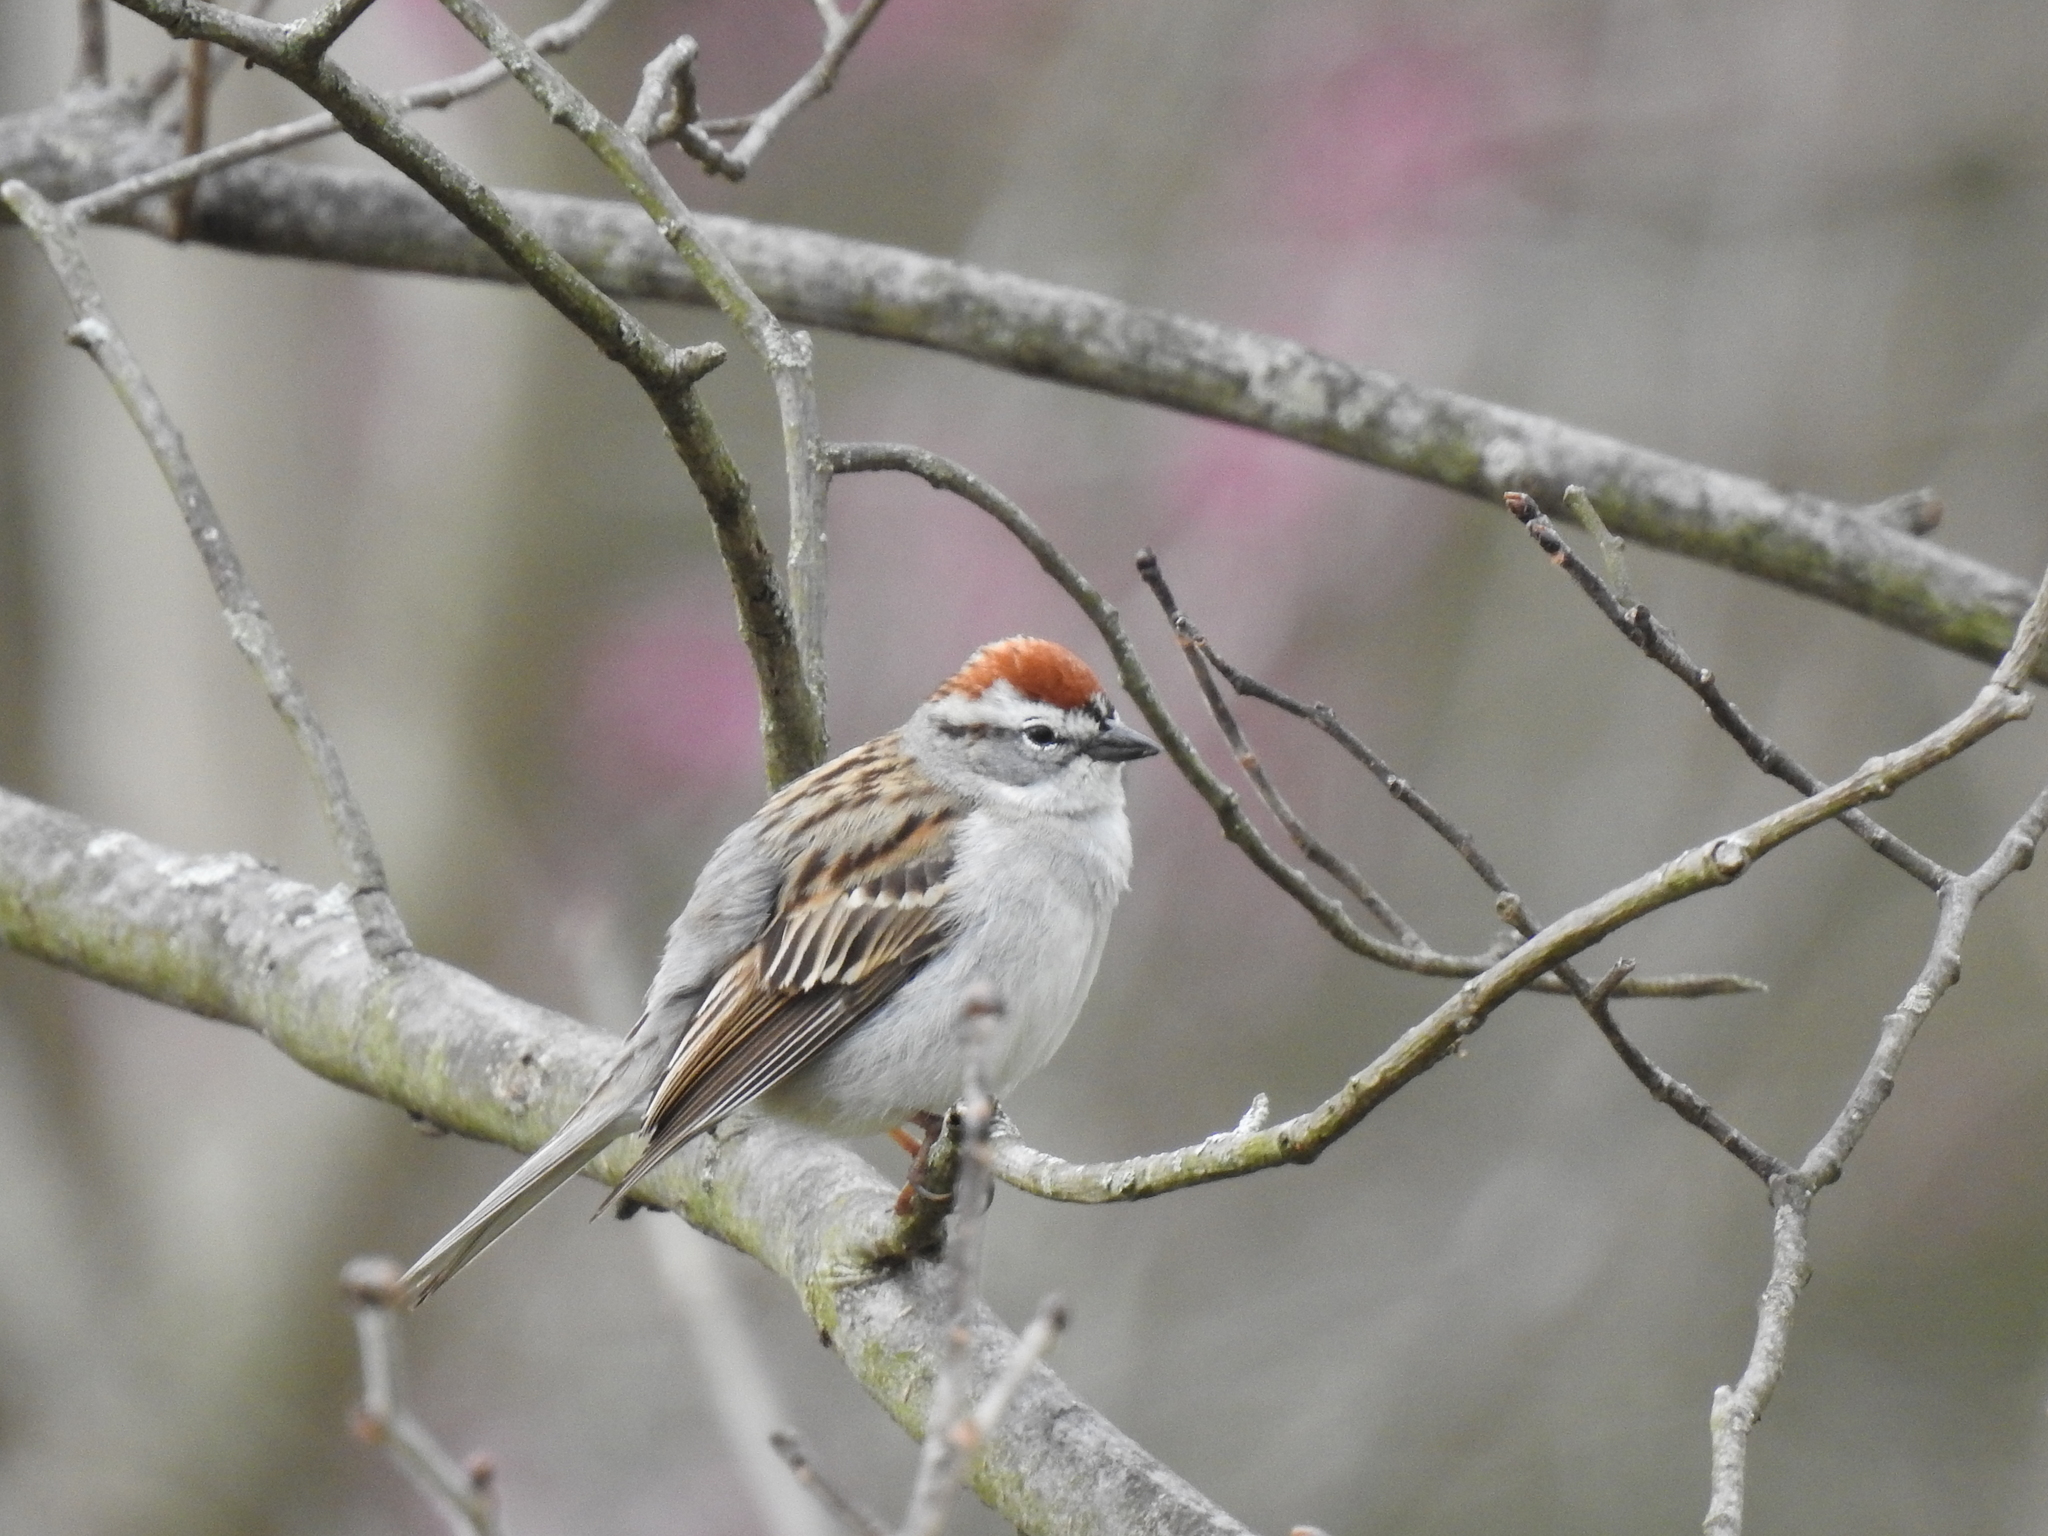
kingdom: Animalia
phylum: Chordata
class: Aves
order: Passeriformes
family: Passerellidae
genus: Spizella
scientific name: Spizella passerina
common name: Chipping sparrow
